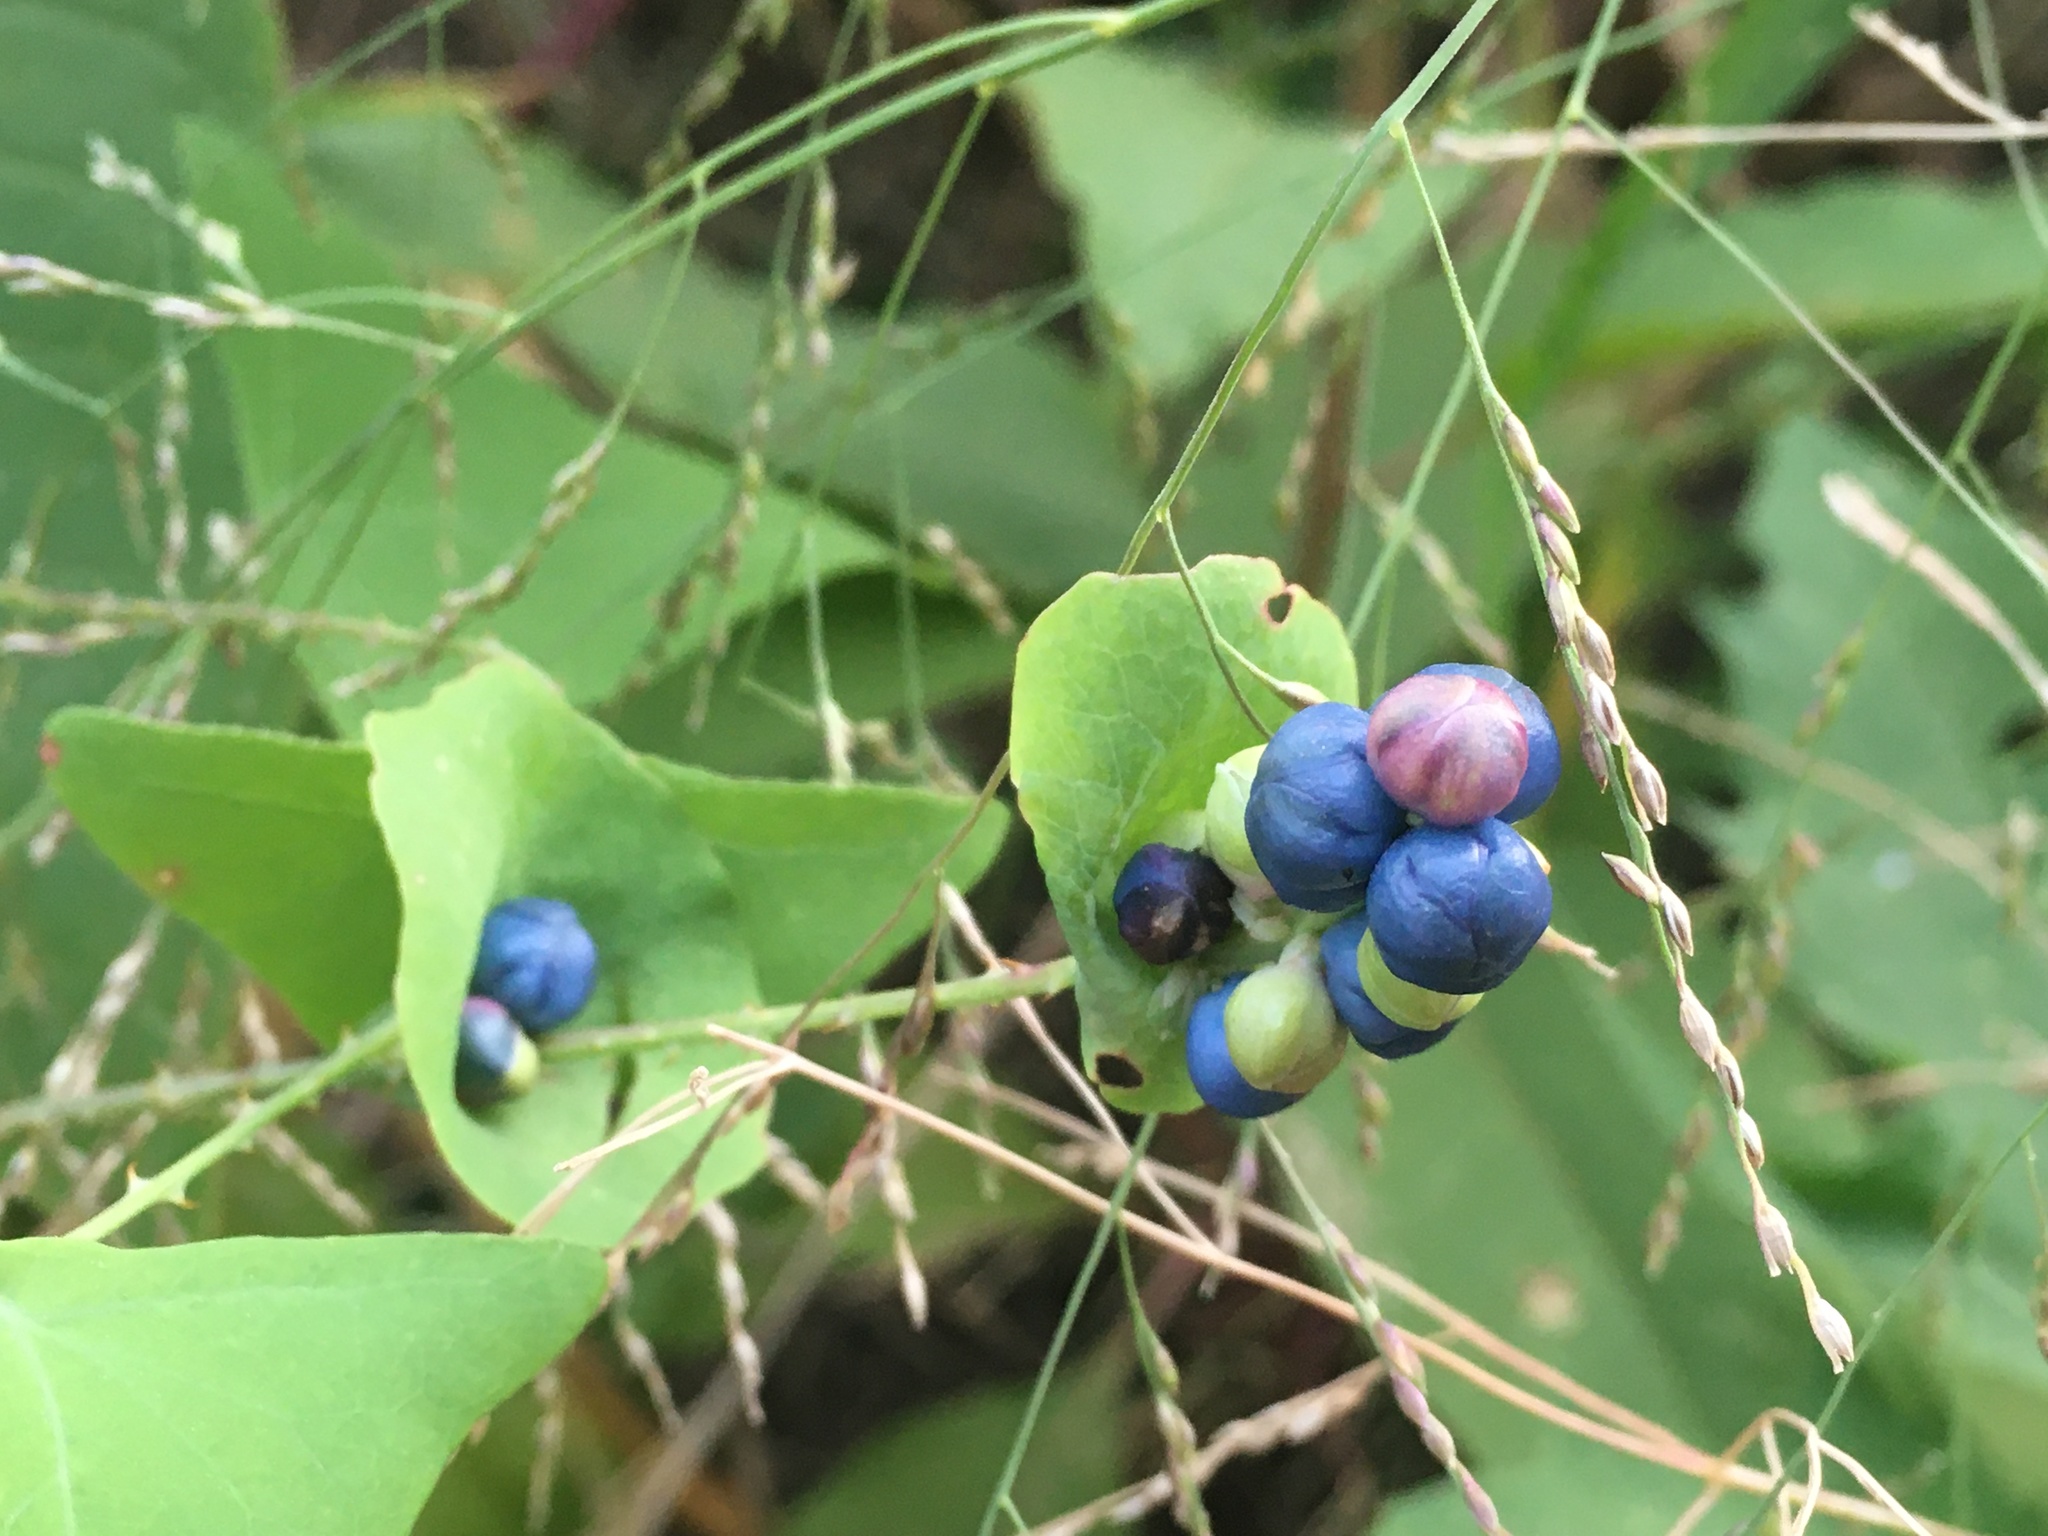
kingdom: Plantae
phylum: Tracheophyta
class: Magnoliopsida
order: Caryophyllales
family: Polygonaceae
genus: Persicaria
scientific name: Persicaria perfoliata
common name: Asiatic tearthumb
